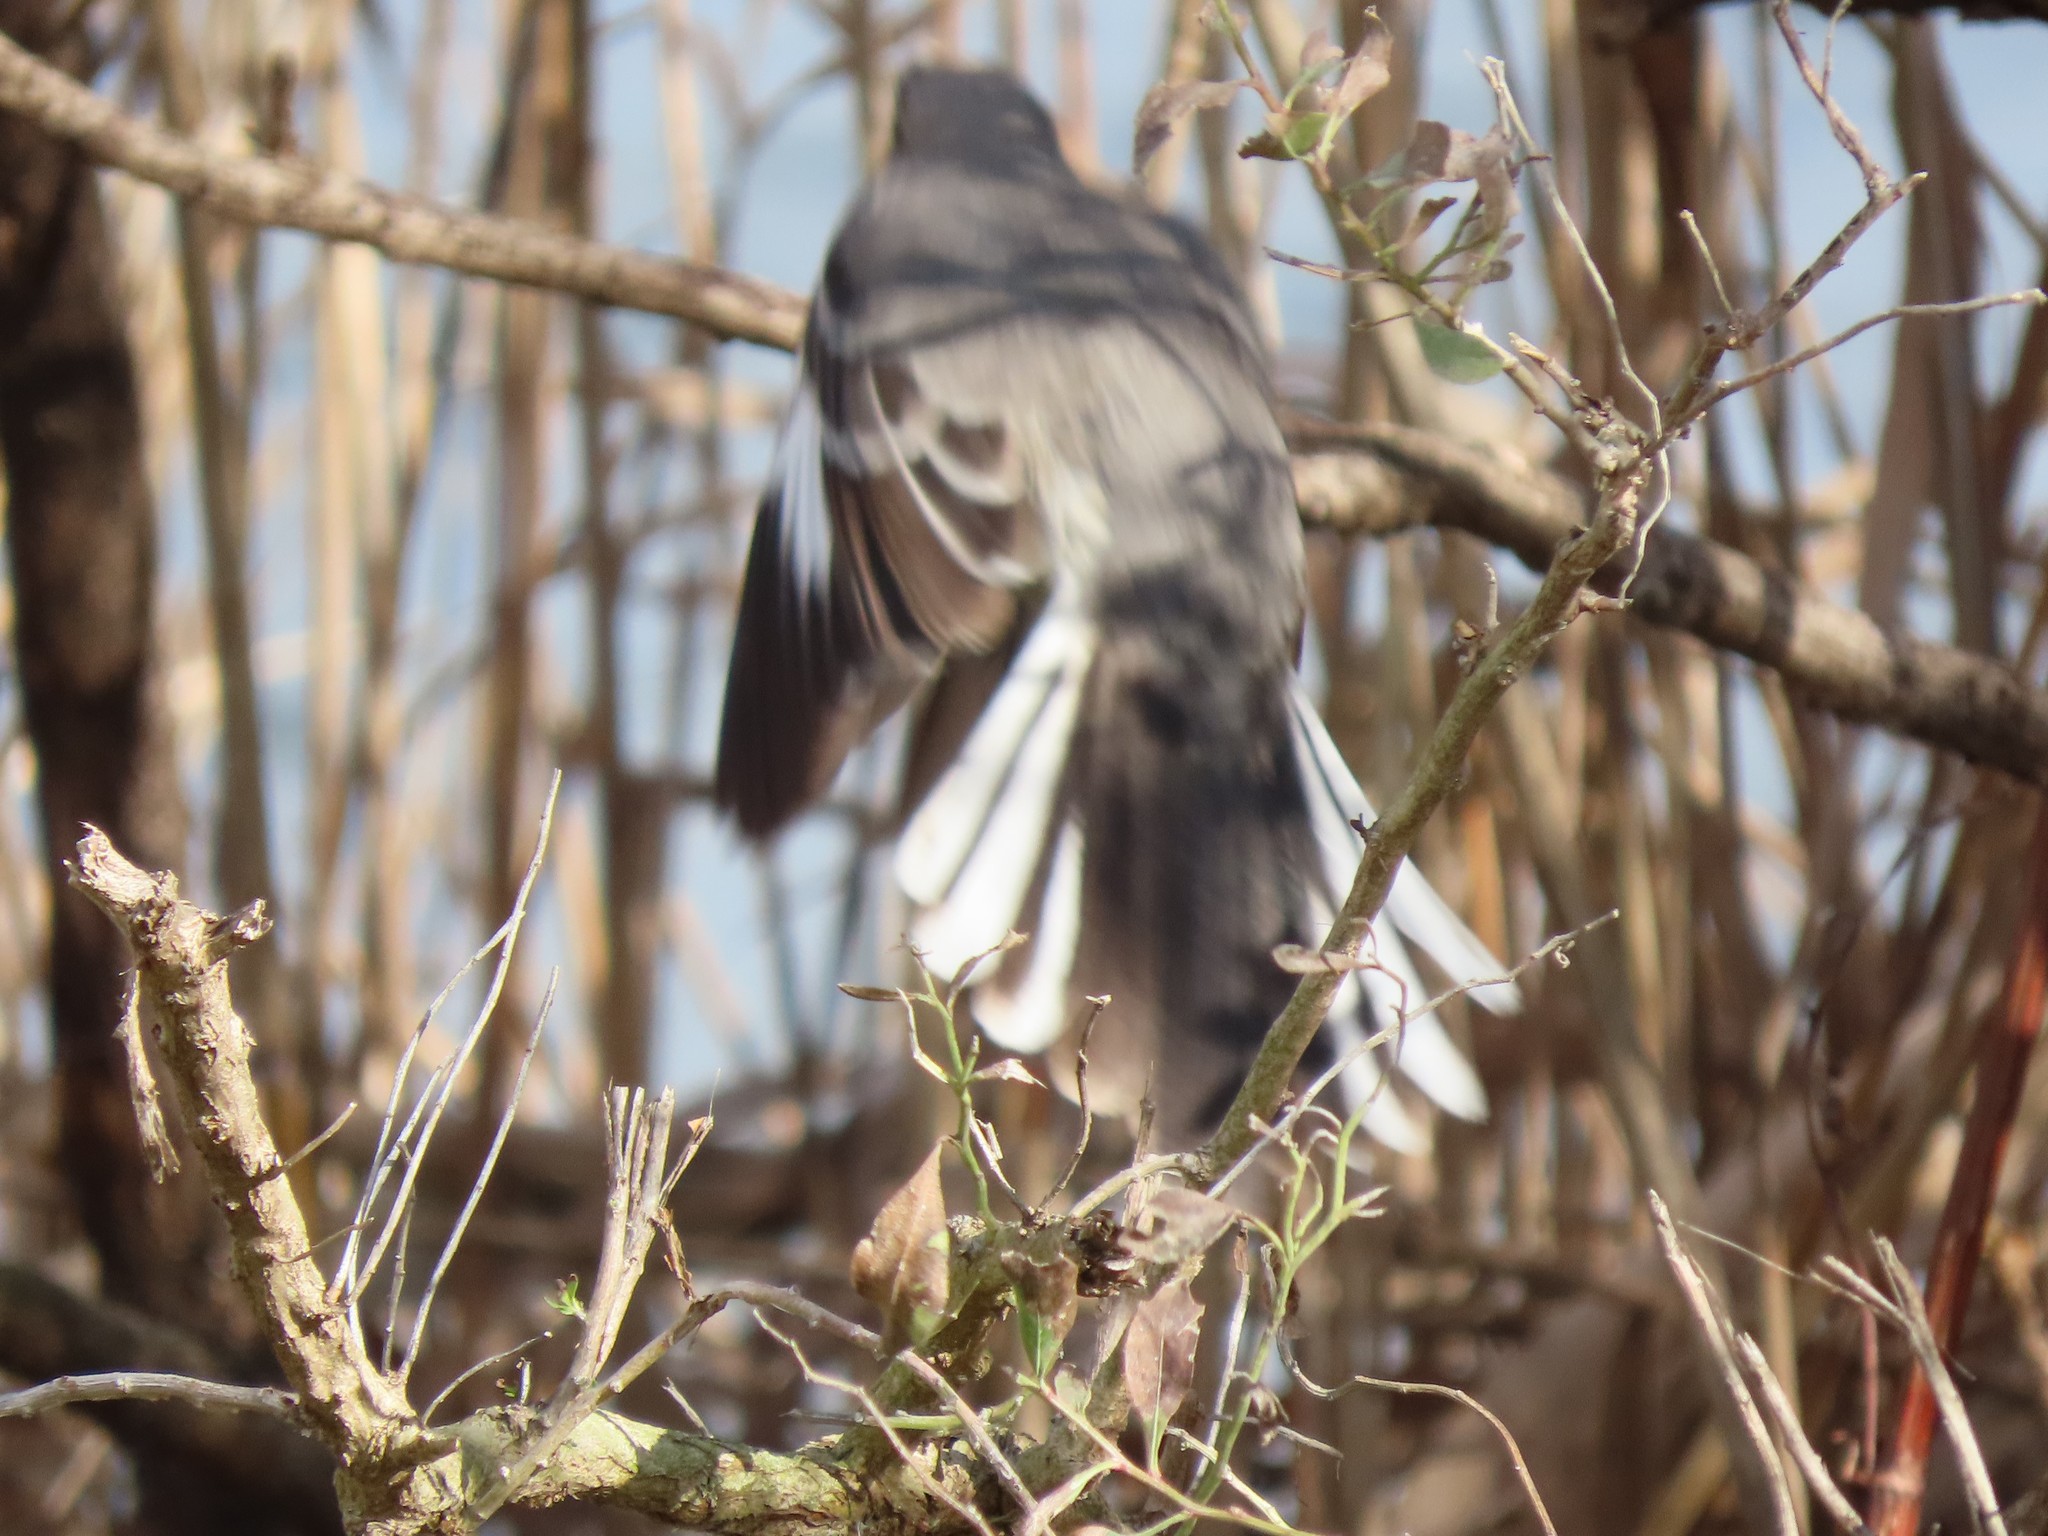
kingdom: Animalia
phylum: Chordata
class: Aves
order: Passeriformes
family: Mimidae
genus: Mimus
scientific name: Mimus polyglottos
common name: Northern mockingbird
